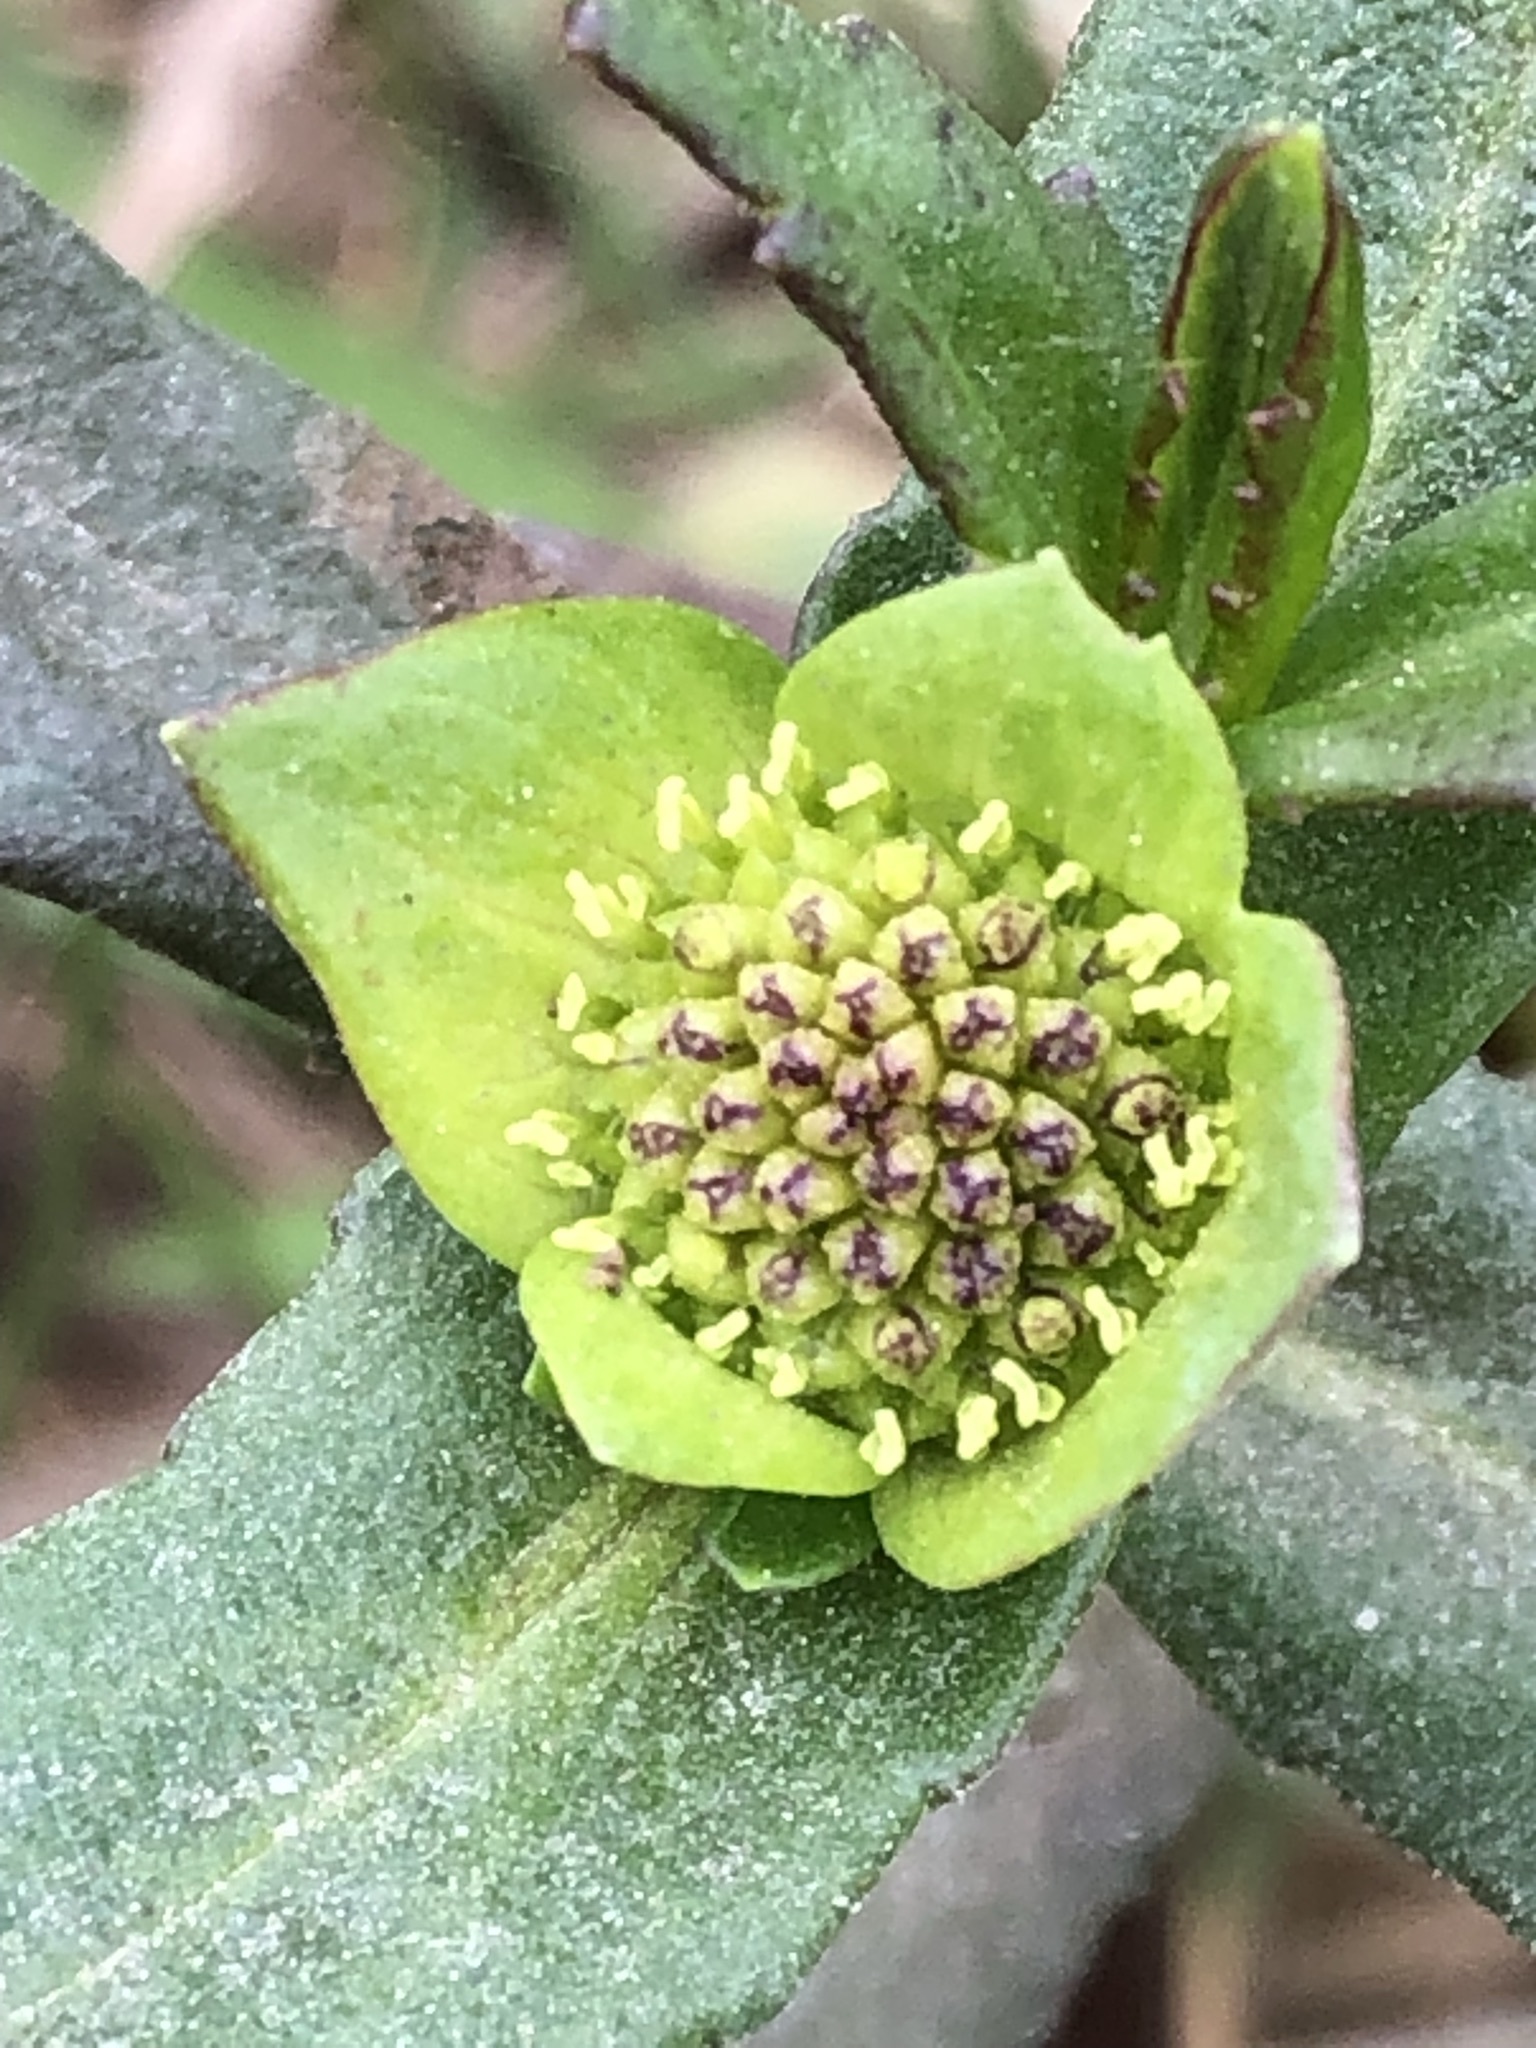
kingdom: Plantae
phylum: Tracheophyta
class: Magnoliopsida
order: Asterales
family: Asteraceae
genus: Enydra
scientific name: Enydra sessilifolia
